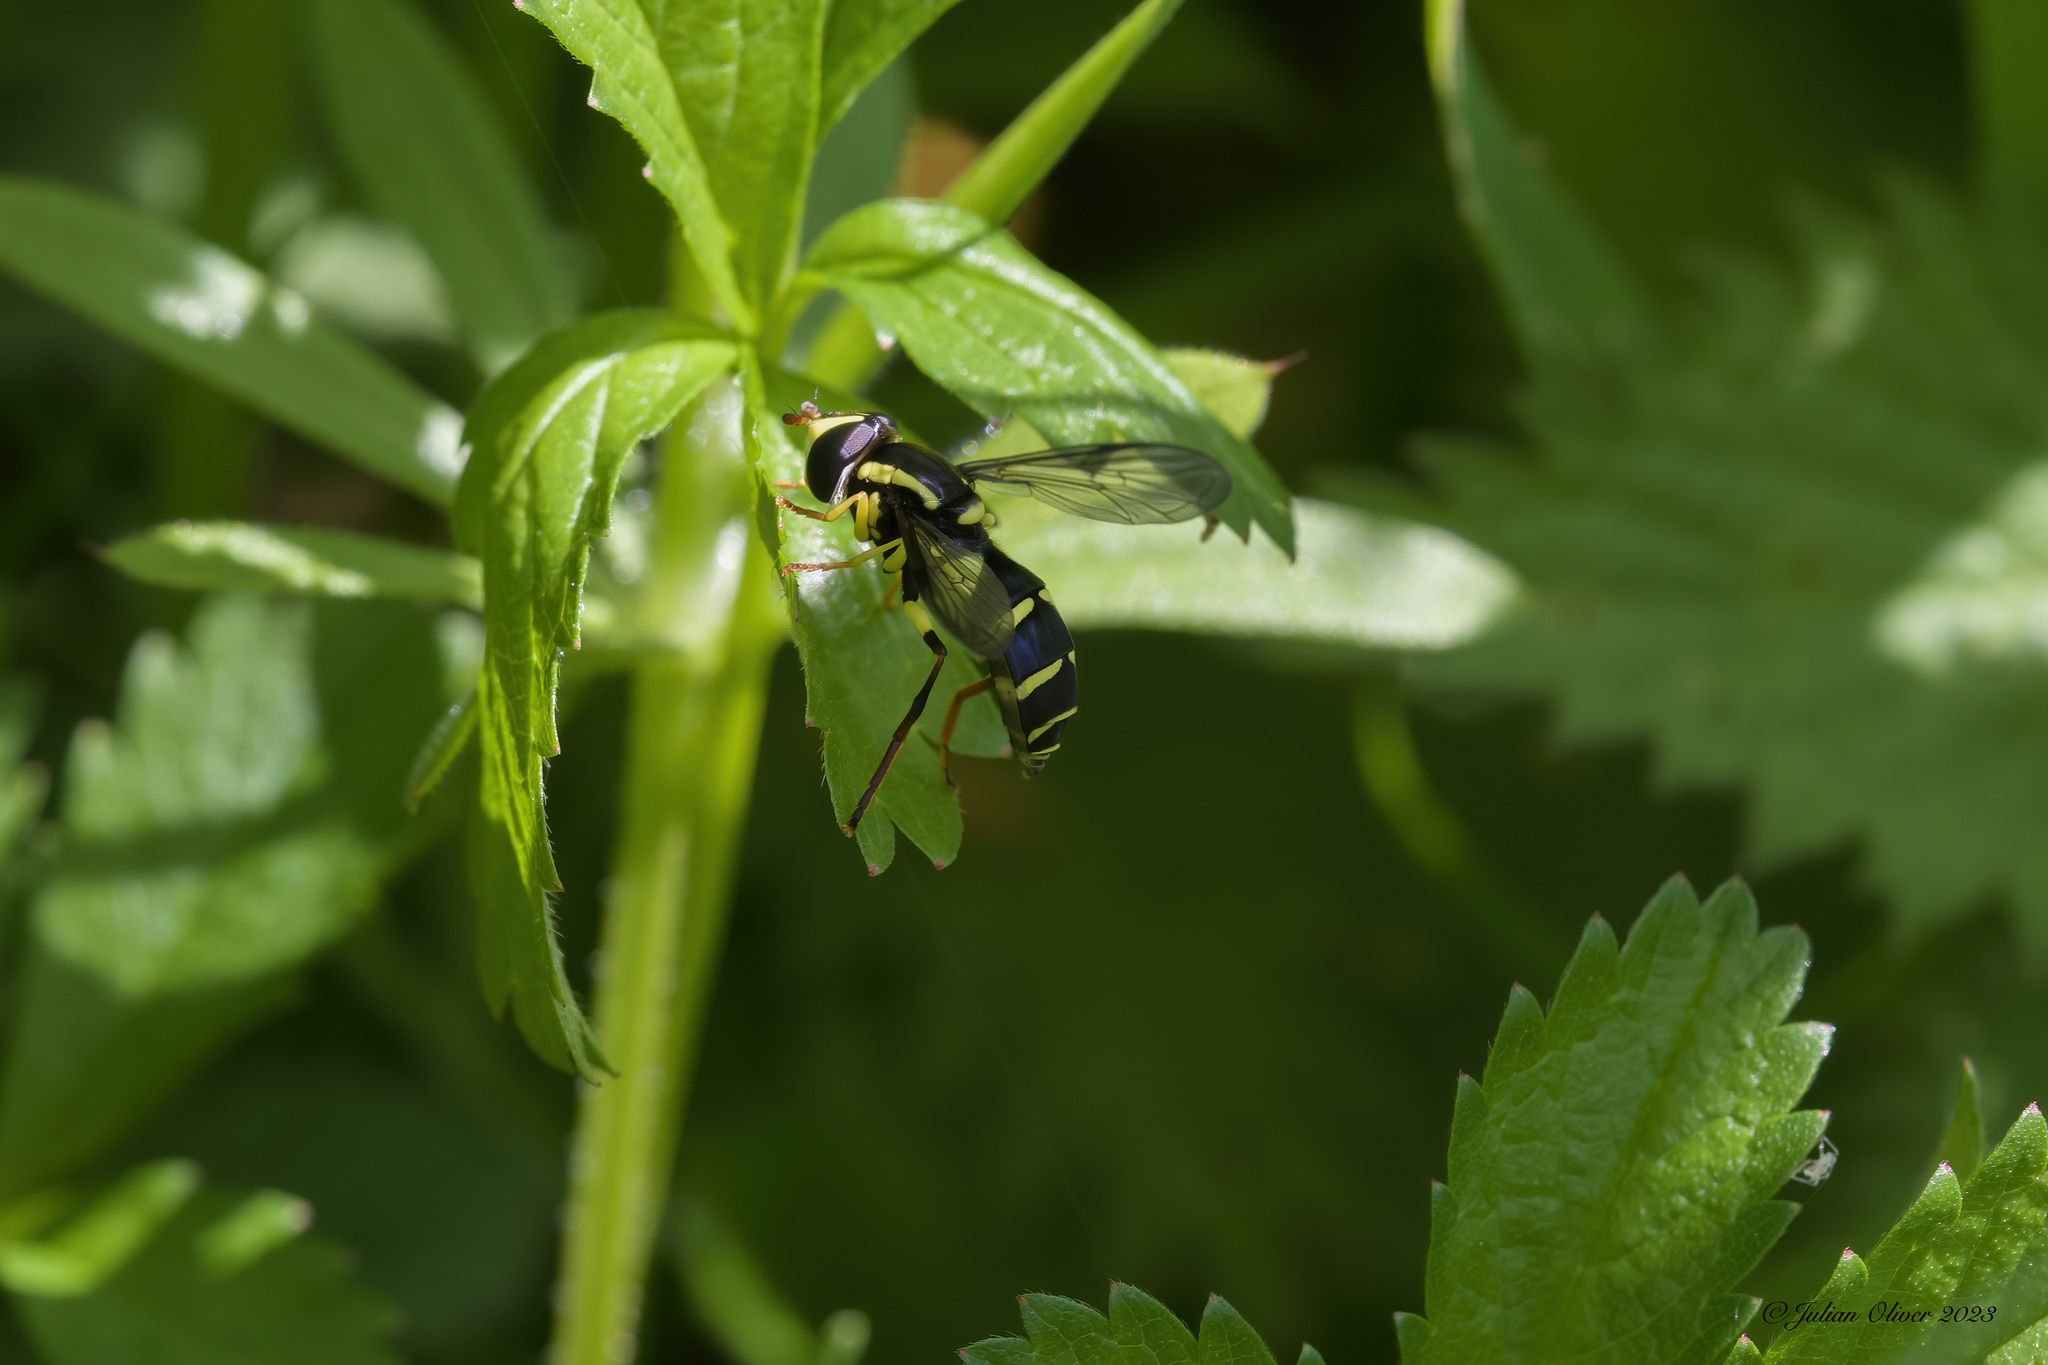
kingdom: Animalia
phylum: Arthropoda
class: Insecta
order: Diptera
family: Syrphidae
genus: Philhelius
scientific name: Philhelius pedissequum
